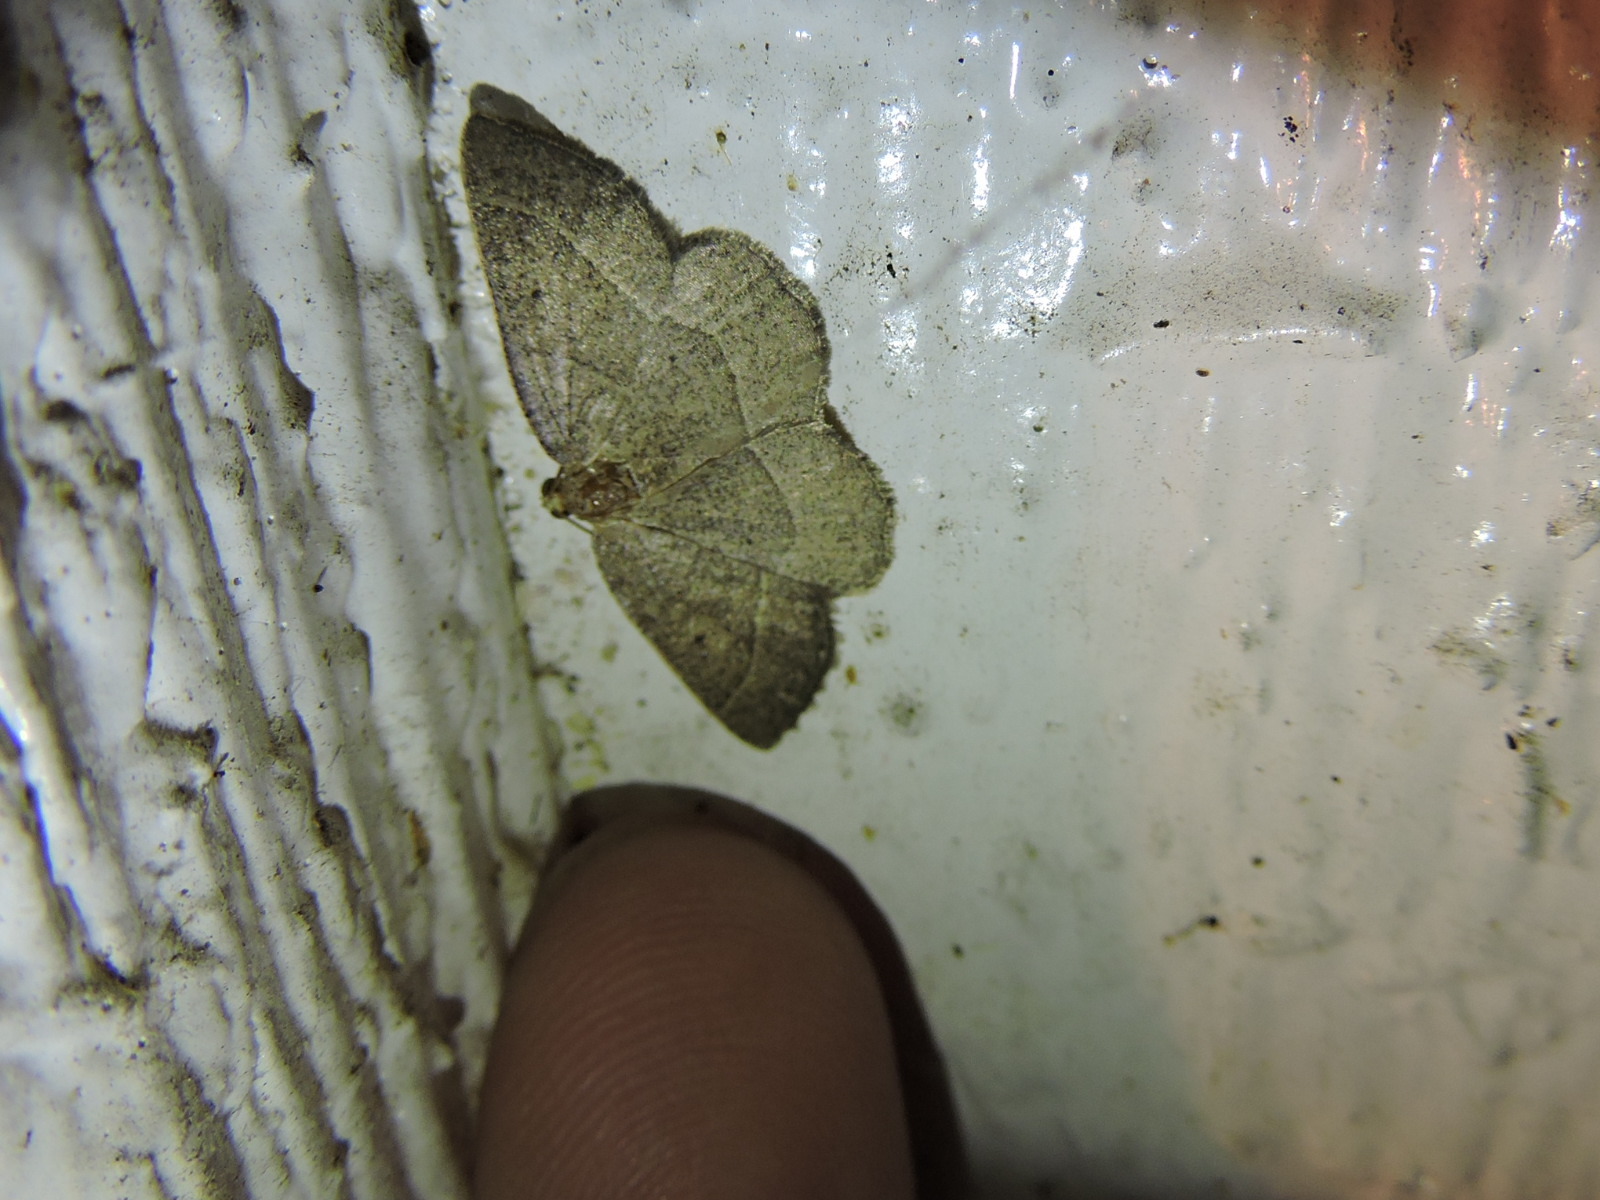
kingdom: Animalia
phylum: Arthropoda
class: Insecta
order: Lepidoptera
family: Geometridae
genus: Episemasia
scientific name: Episemasia cervinaria
